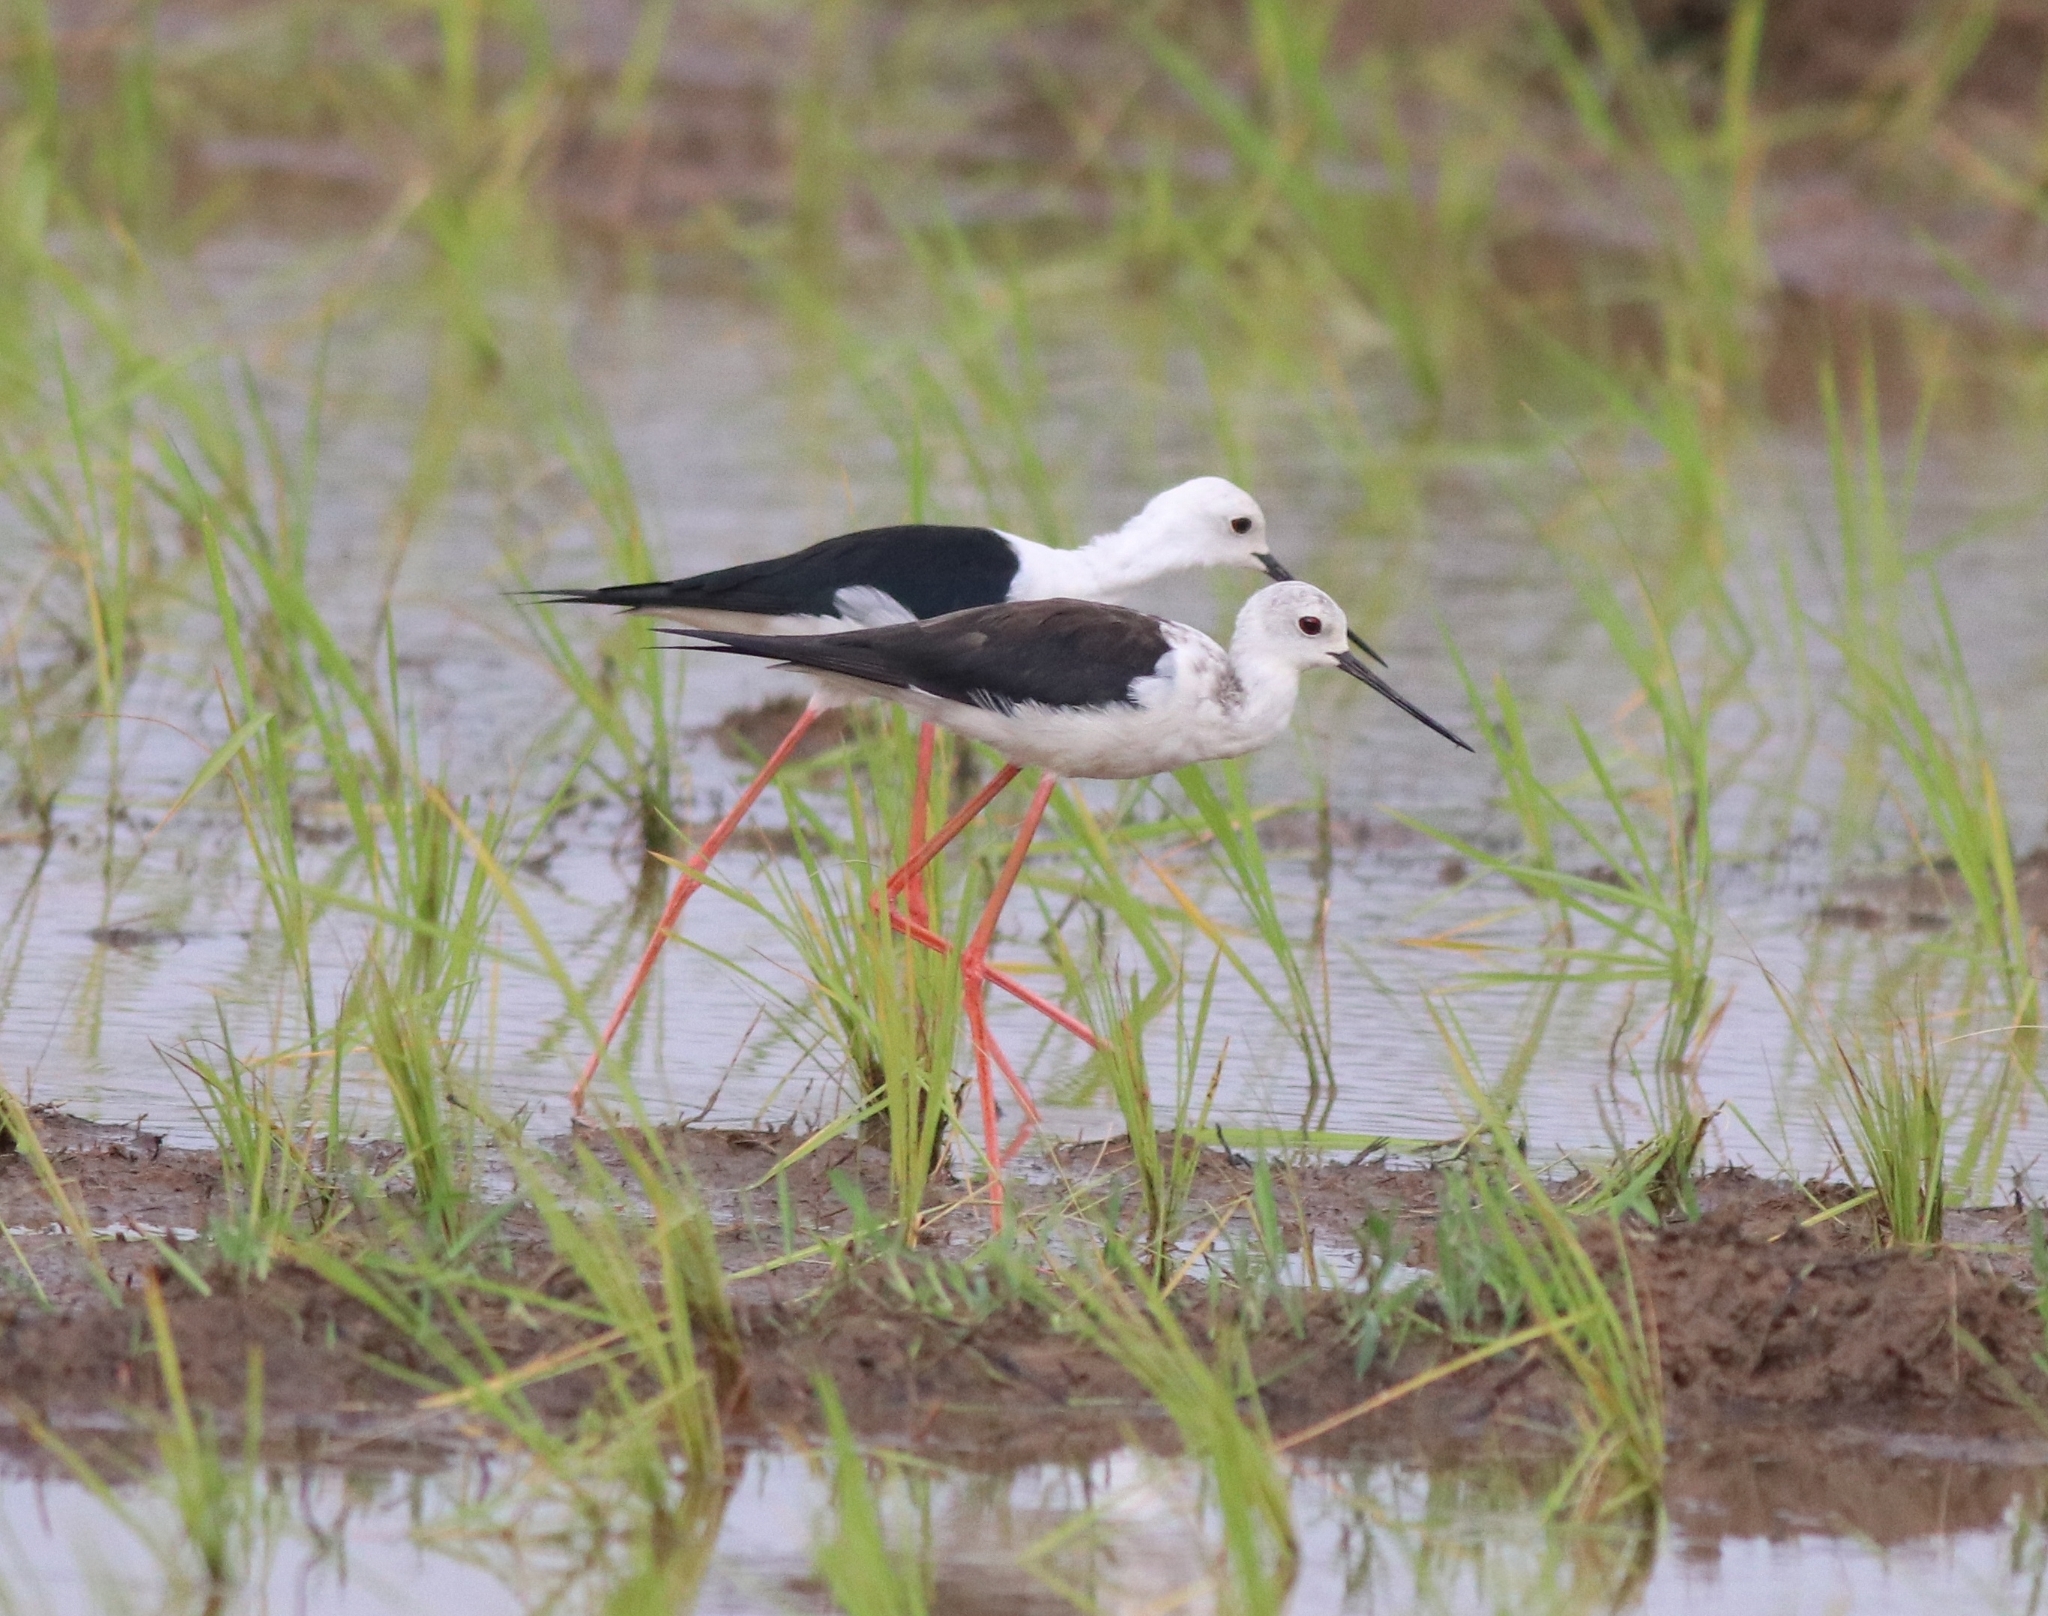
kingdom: Animalia
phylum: Chordata
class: Aves
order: Charadriiformes
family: Recurvirostridae
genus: Himantopus
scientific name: Himantopus himantopus
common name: Black-winged stilt
